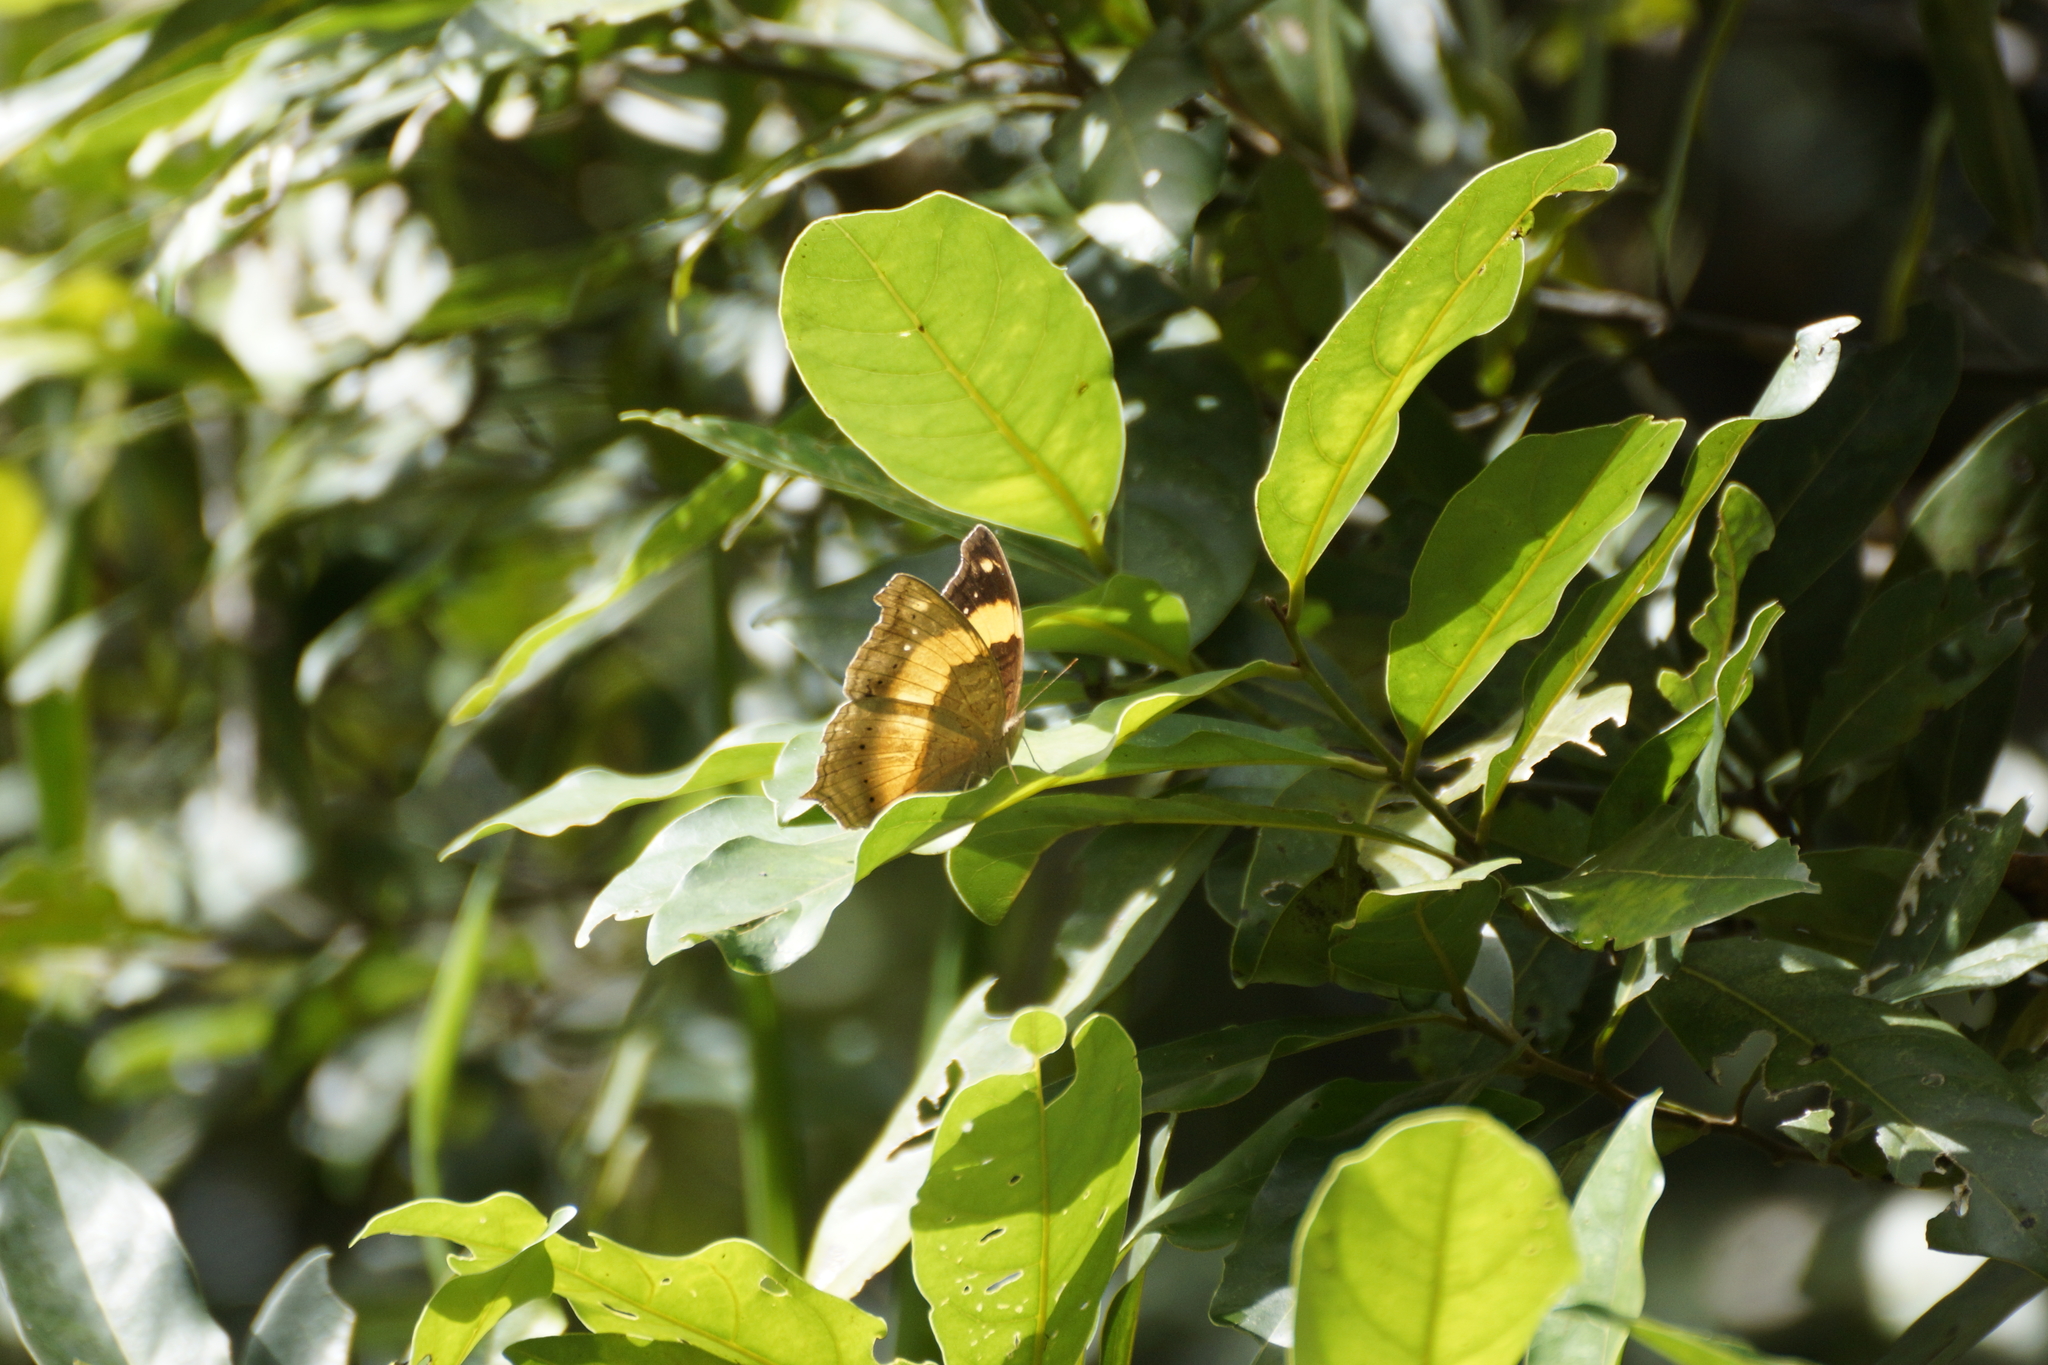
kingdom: Animalia
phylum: Arthropoda
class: Insecta
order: Lepidoptera
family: Nymphalidae
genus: Yoma
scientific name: Yoma sabina
